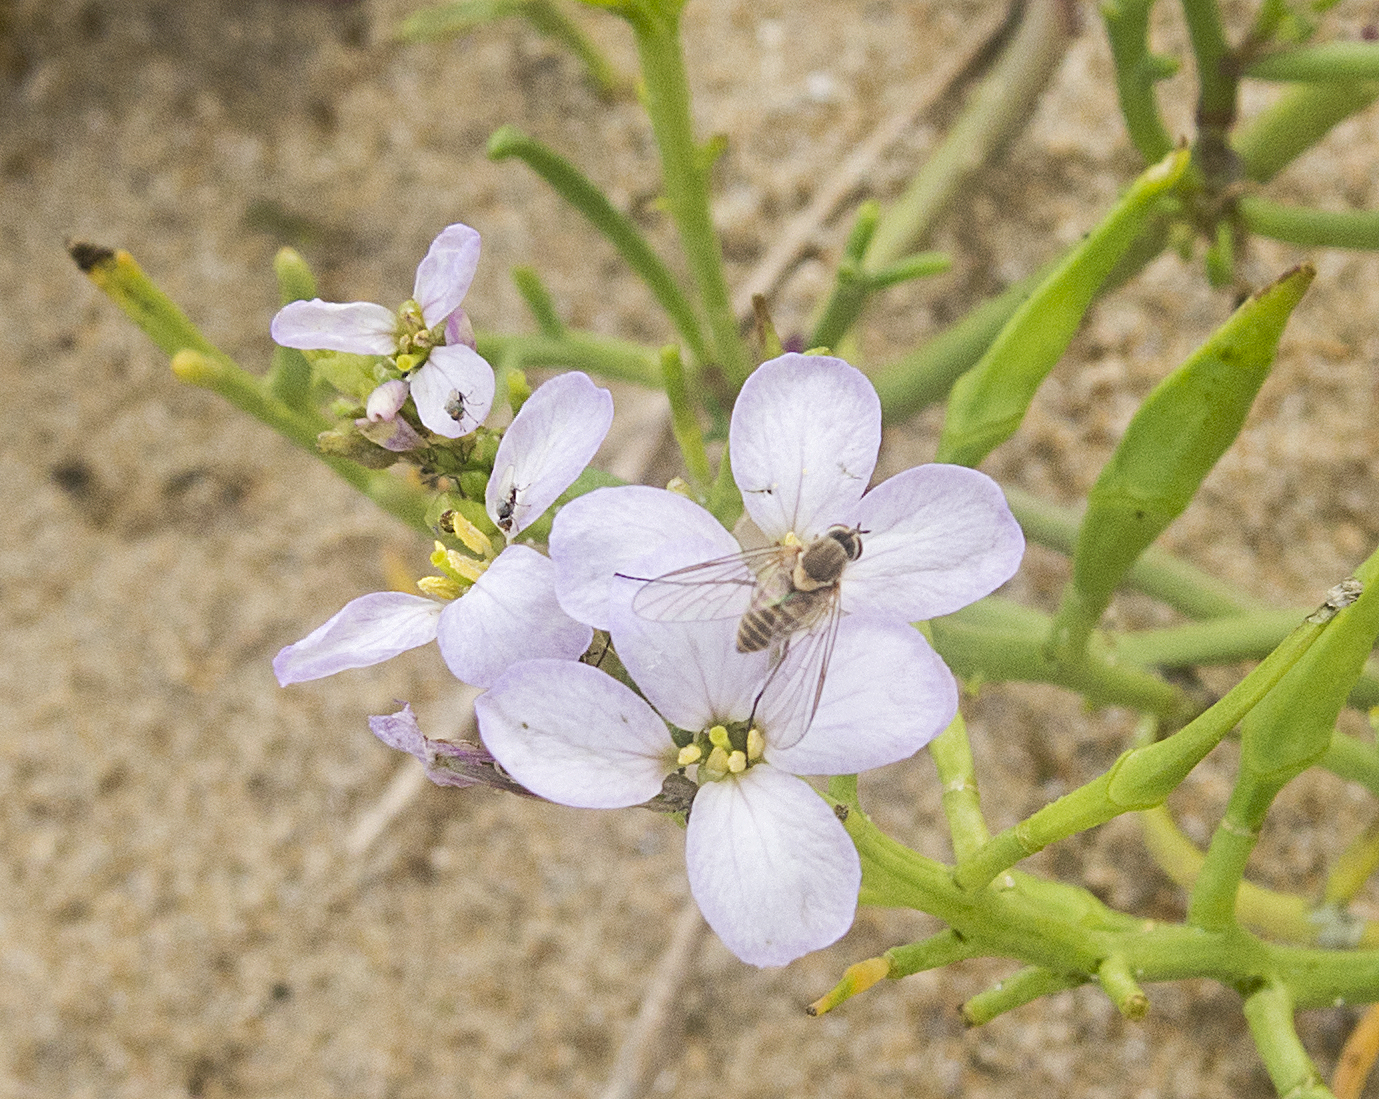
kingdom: Plantae
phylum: Tracheophyta
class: Magnoliopsida
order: Brassicales
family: Brassicaceae
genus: Cakile
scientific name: Cakile maritima
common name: Sea rocket
